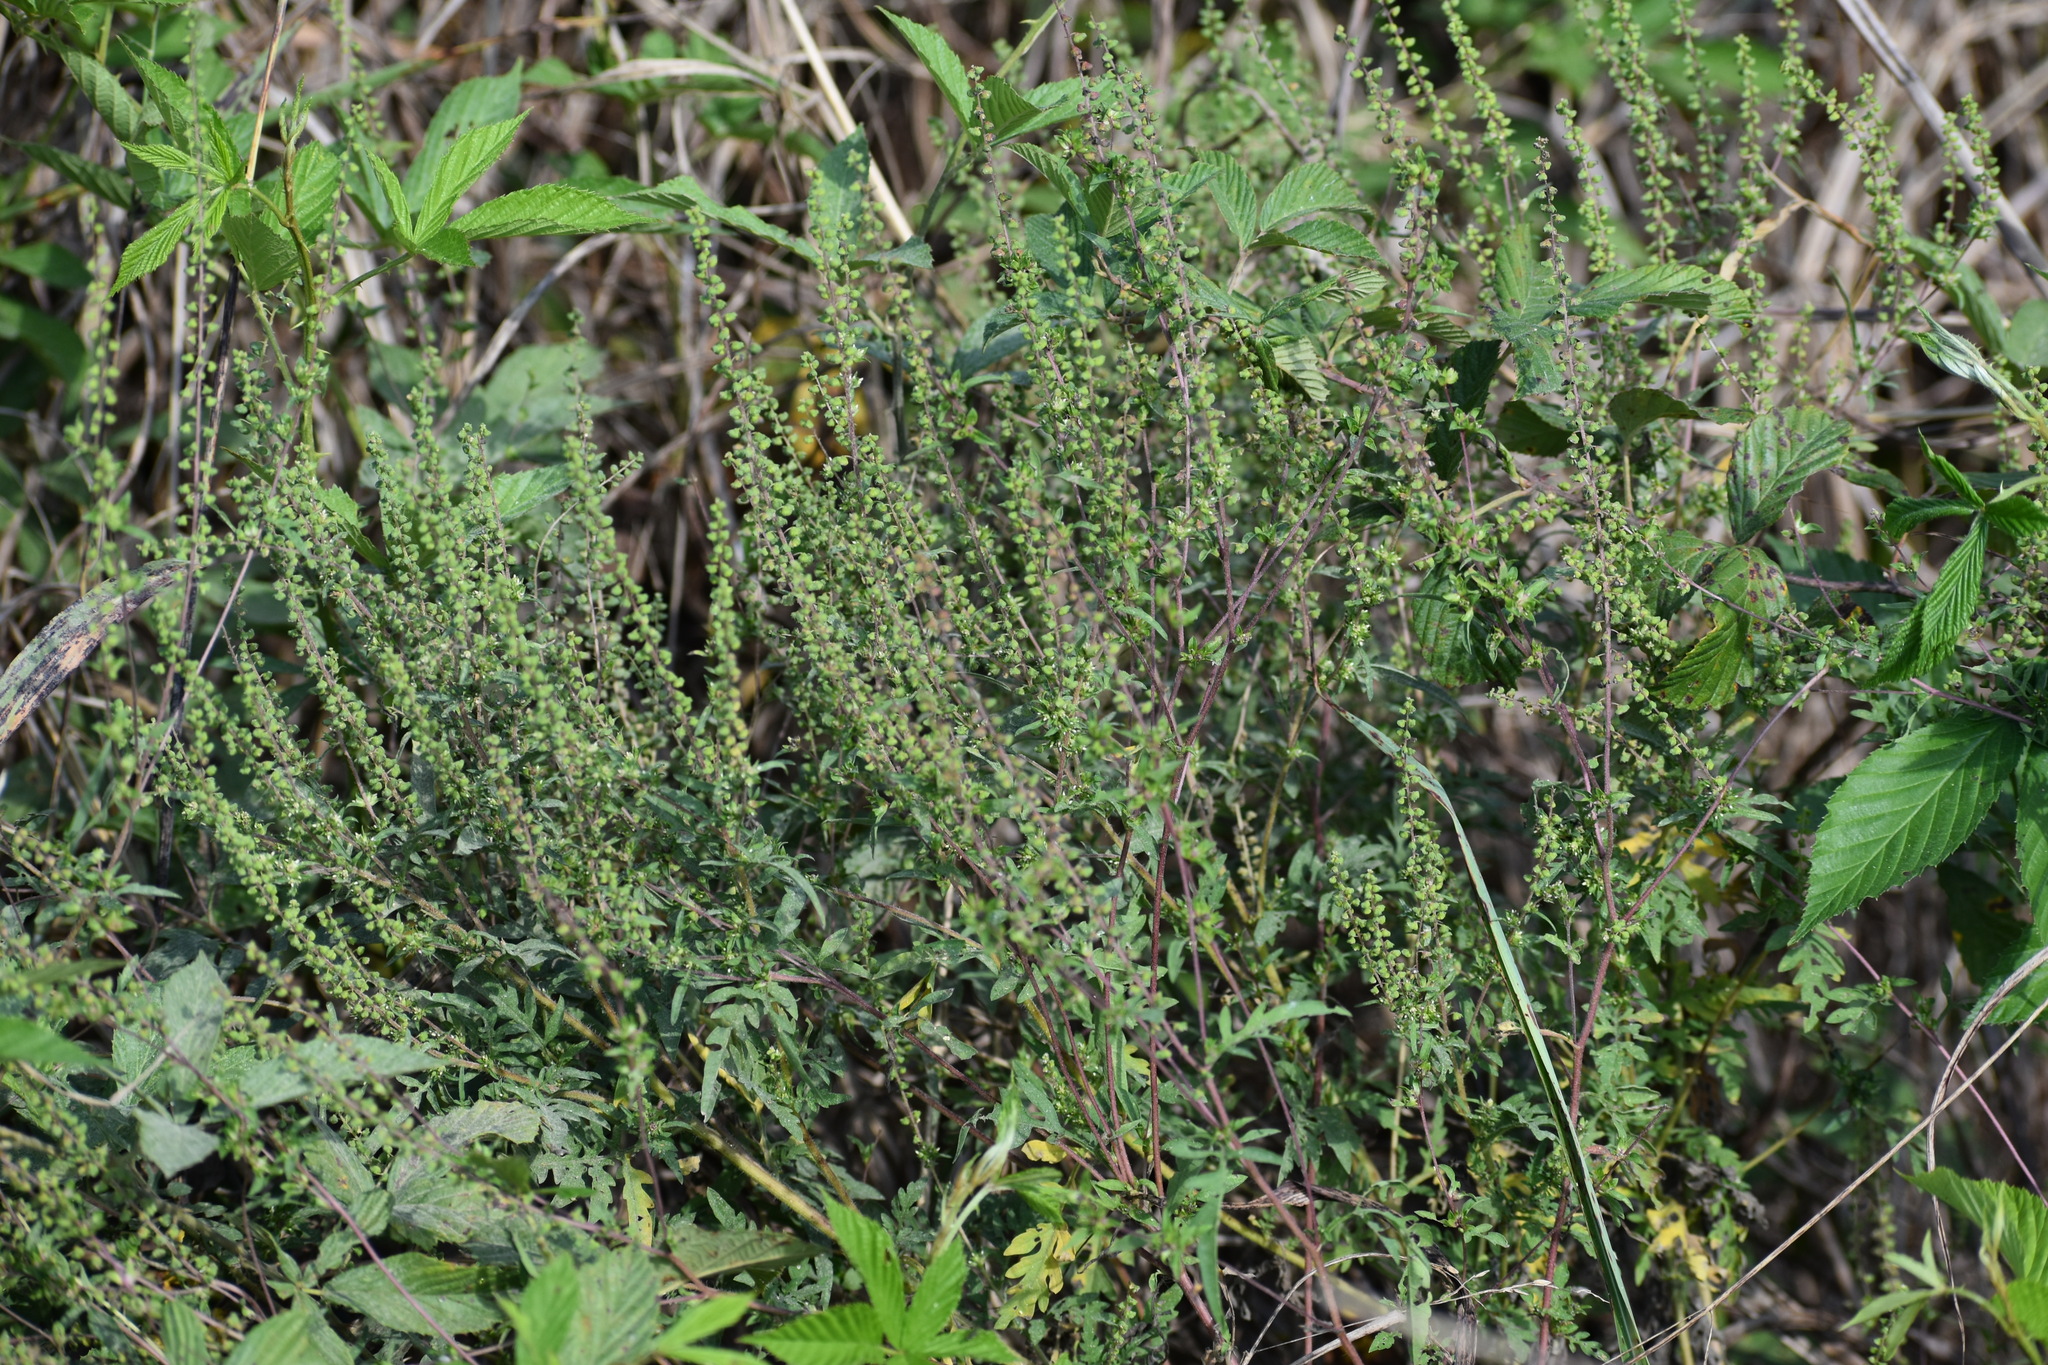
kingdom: Plantae
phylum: Tracheophyta
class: Magnoliopsida
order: Asterales
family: Asteraceae
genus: Ambrosia
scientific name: Ambrosia artemisiifolia
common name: Annual ragweed
